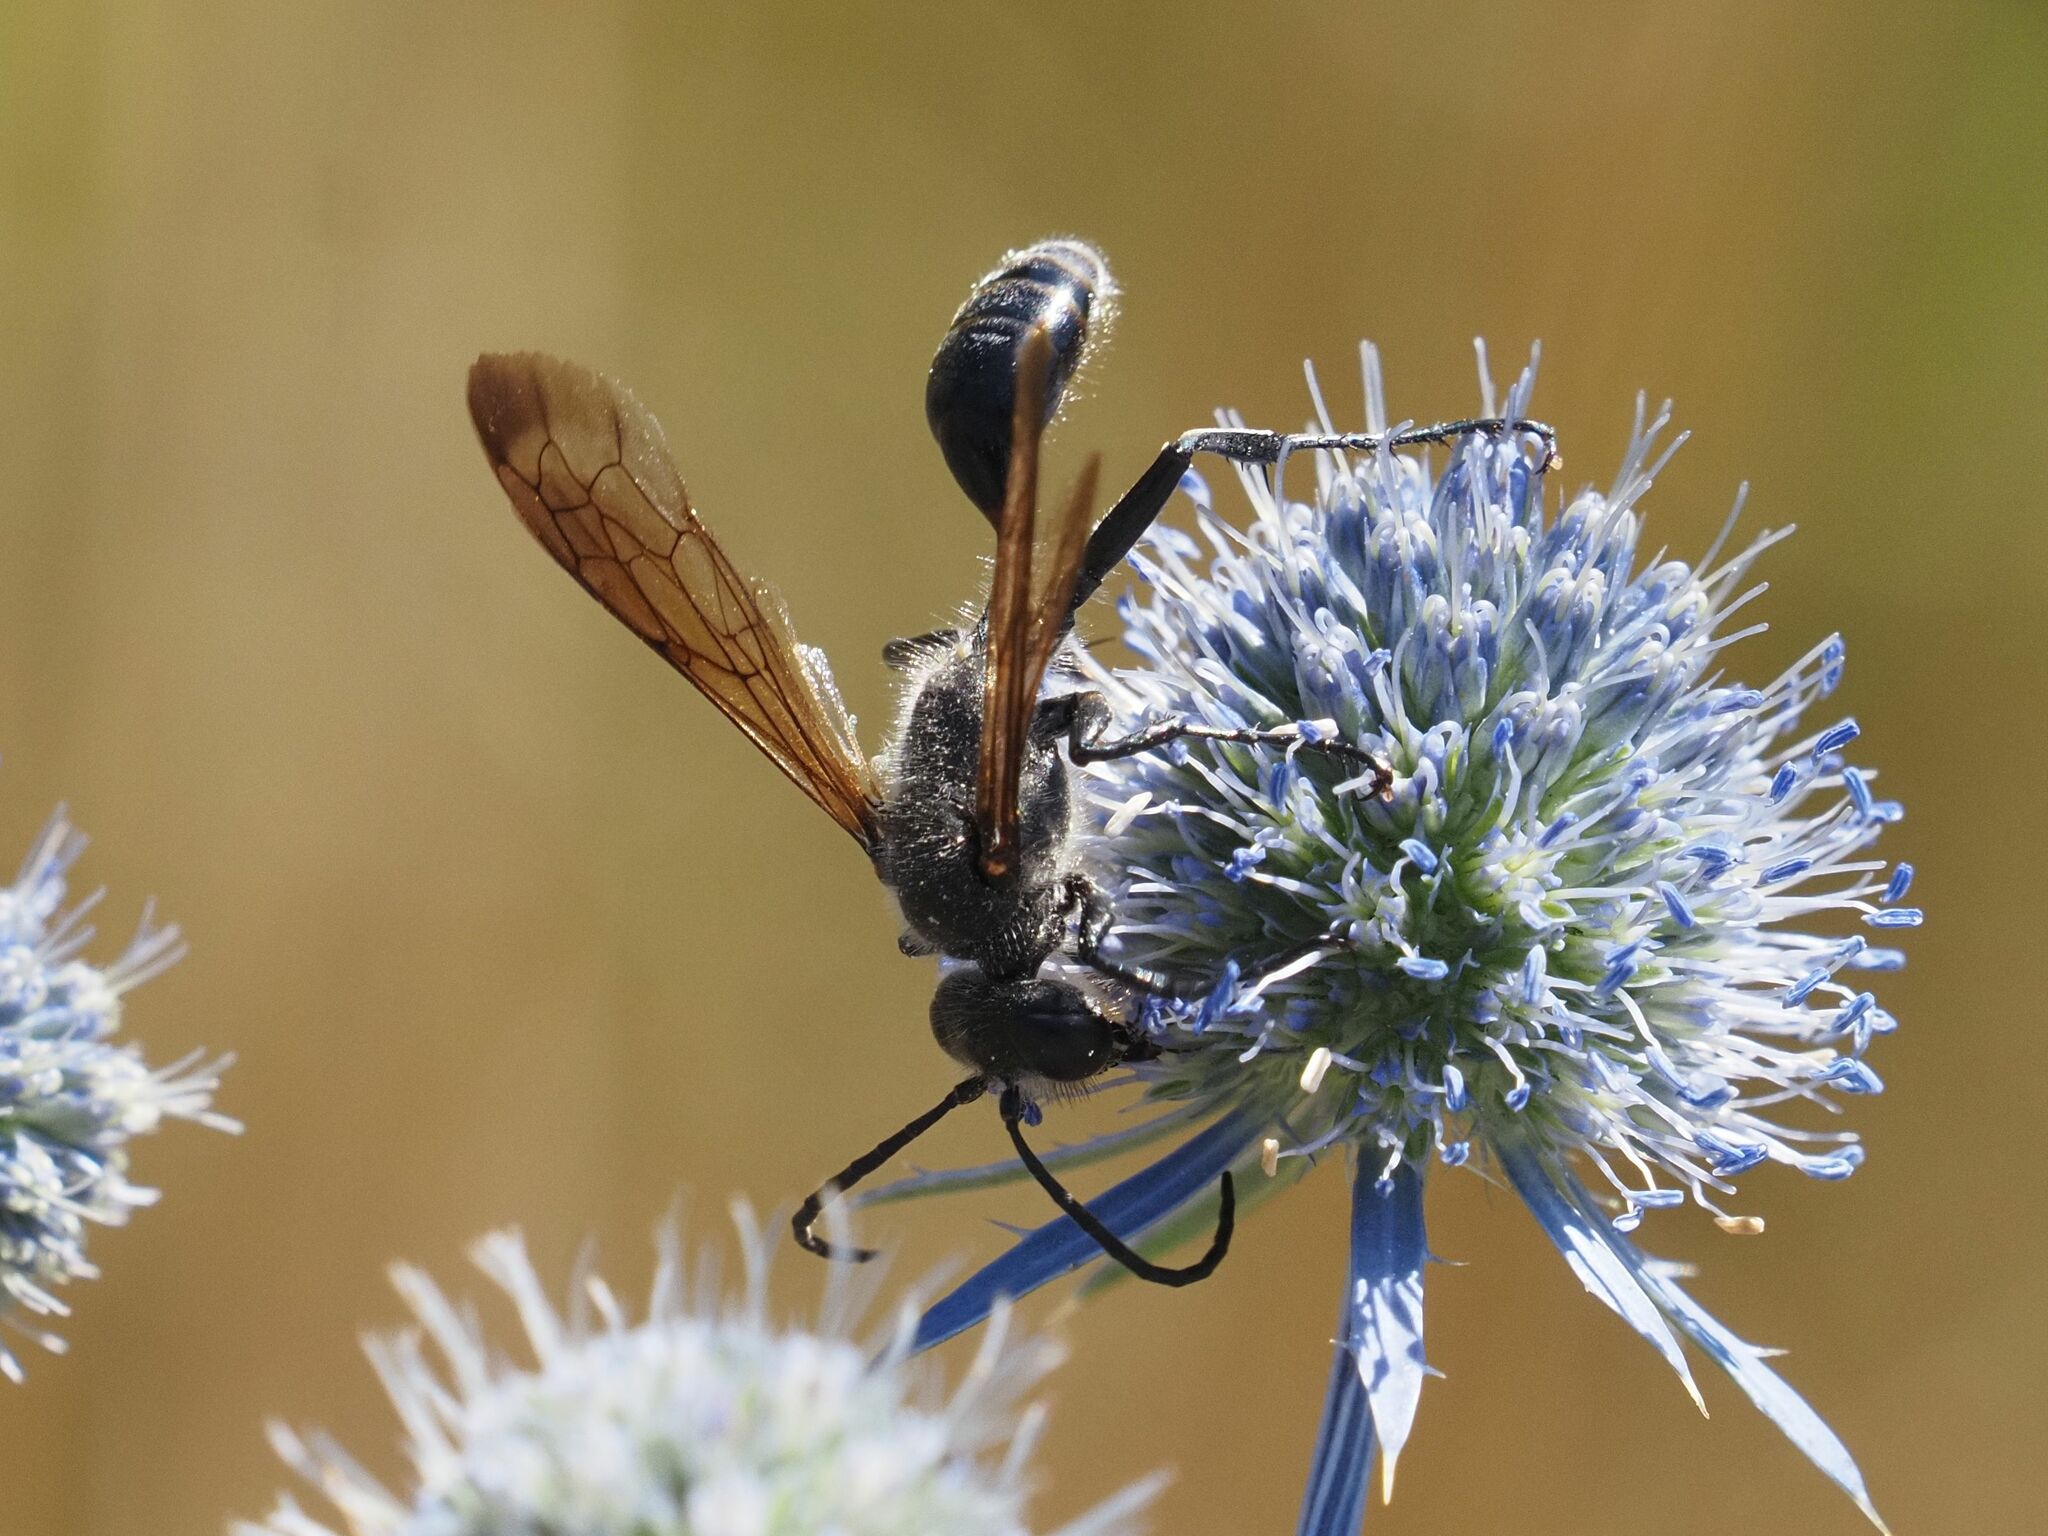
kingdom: Animalia
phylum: Arthropoda
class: Insecta
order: Hymenoptera
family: Sphecidae
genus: Isodontia
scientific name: Isodontia mexicana
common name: Mud dauber
